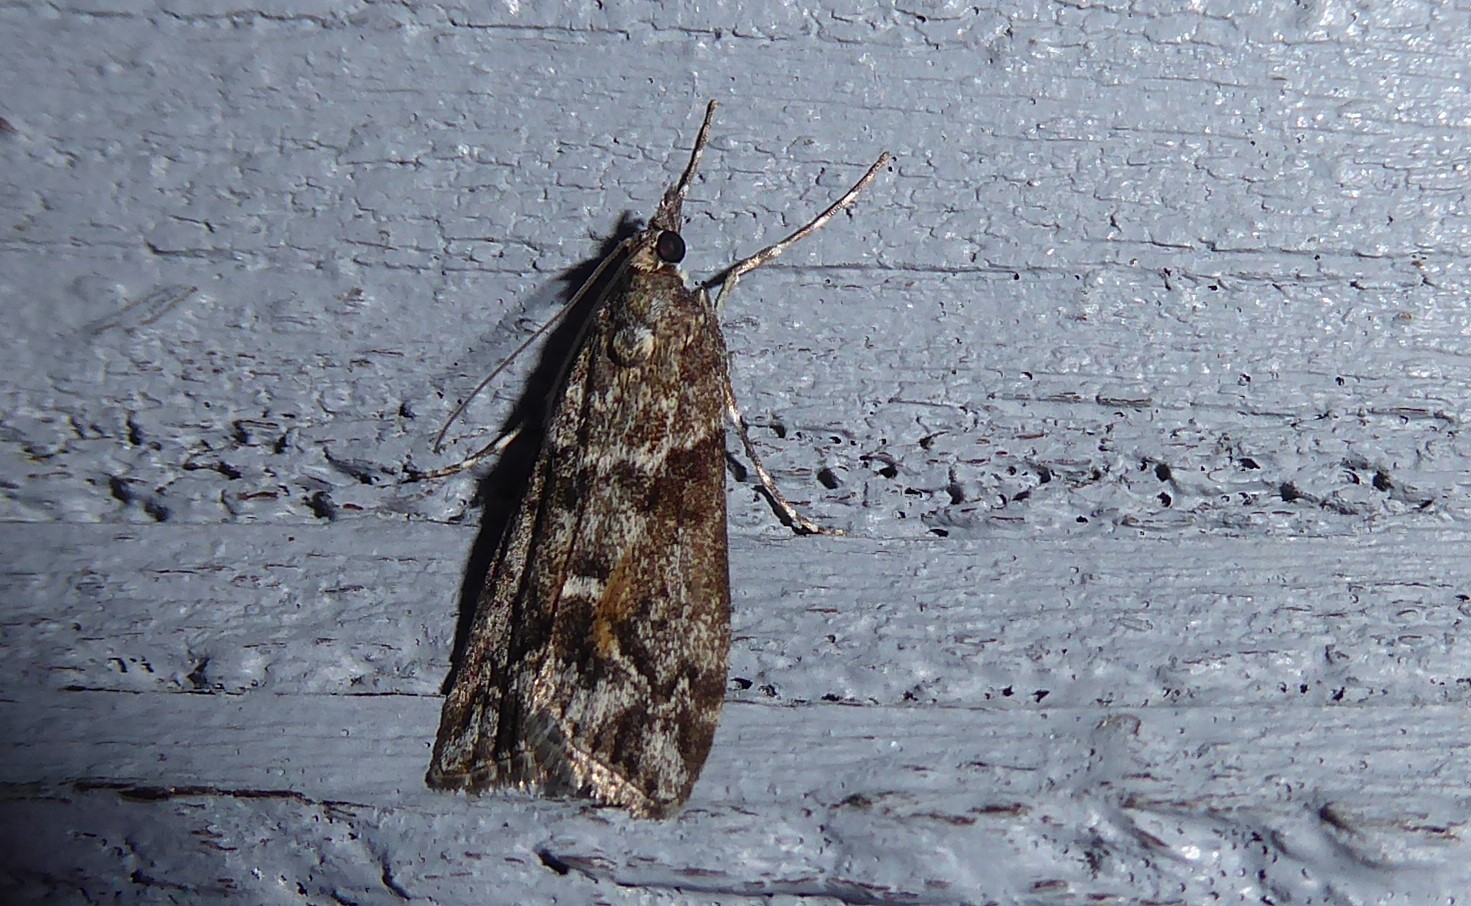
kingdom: Animalia
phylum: Arthropoda
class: Insecta
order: Lepidoptera
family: Crambidae
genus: Eudonia
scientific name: Eudonia submarginalis
